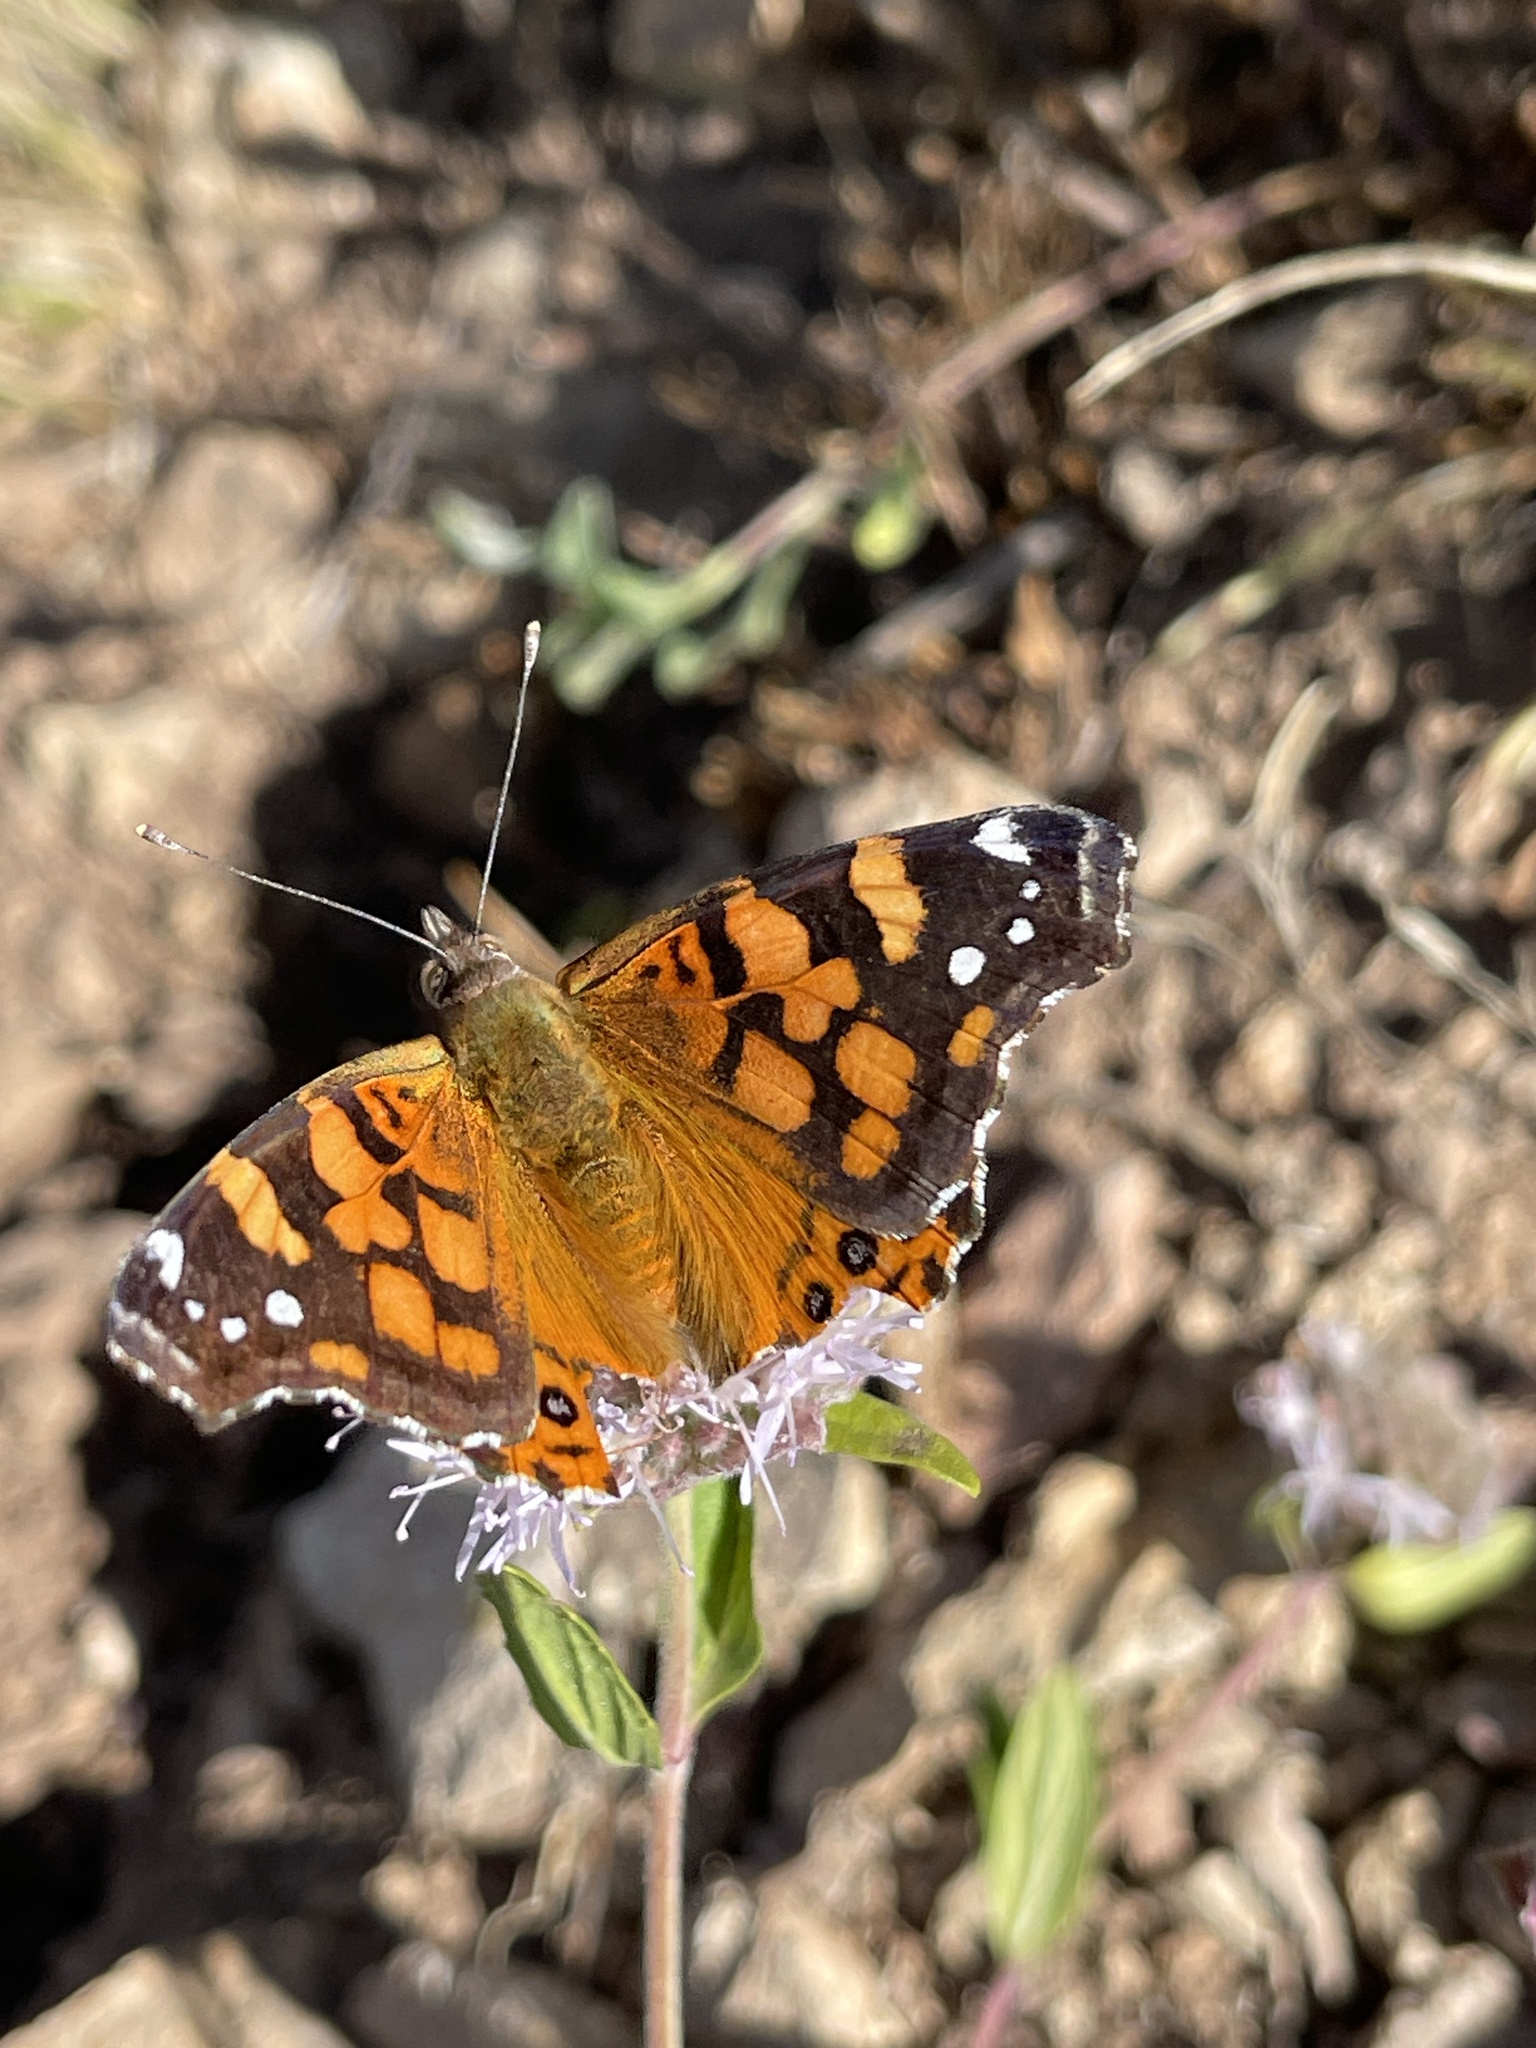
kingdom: Animalia
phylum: Arthropoda
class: Insecta
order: Lepidoptera
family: Nymphalidae
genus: Vanessa
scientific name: Vanessa annabella
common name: West coast lady
